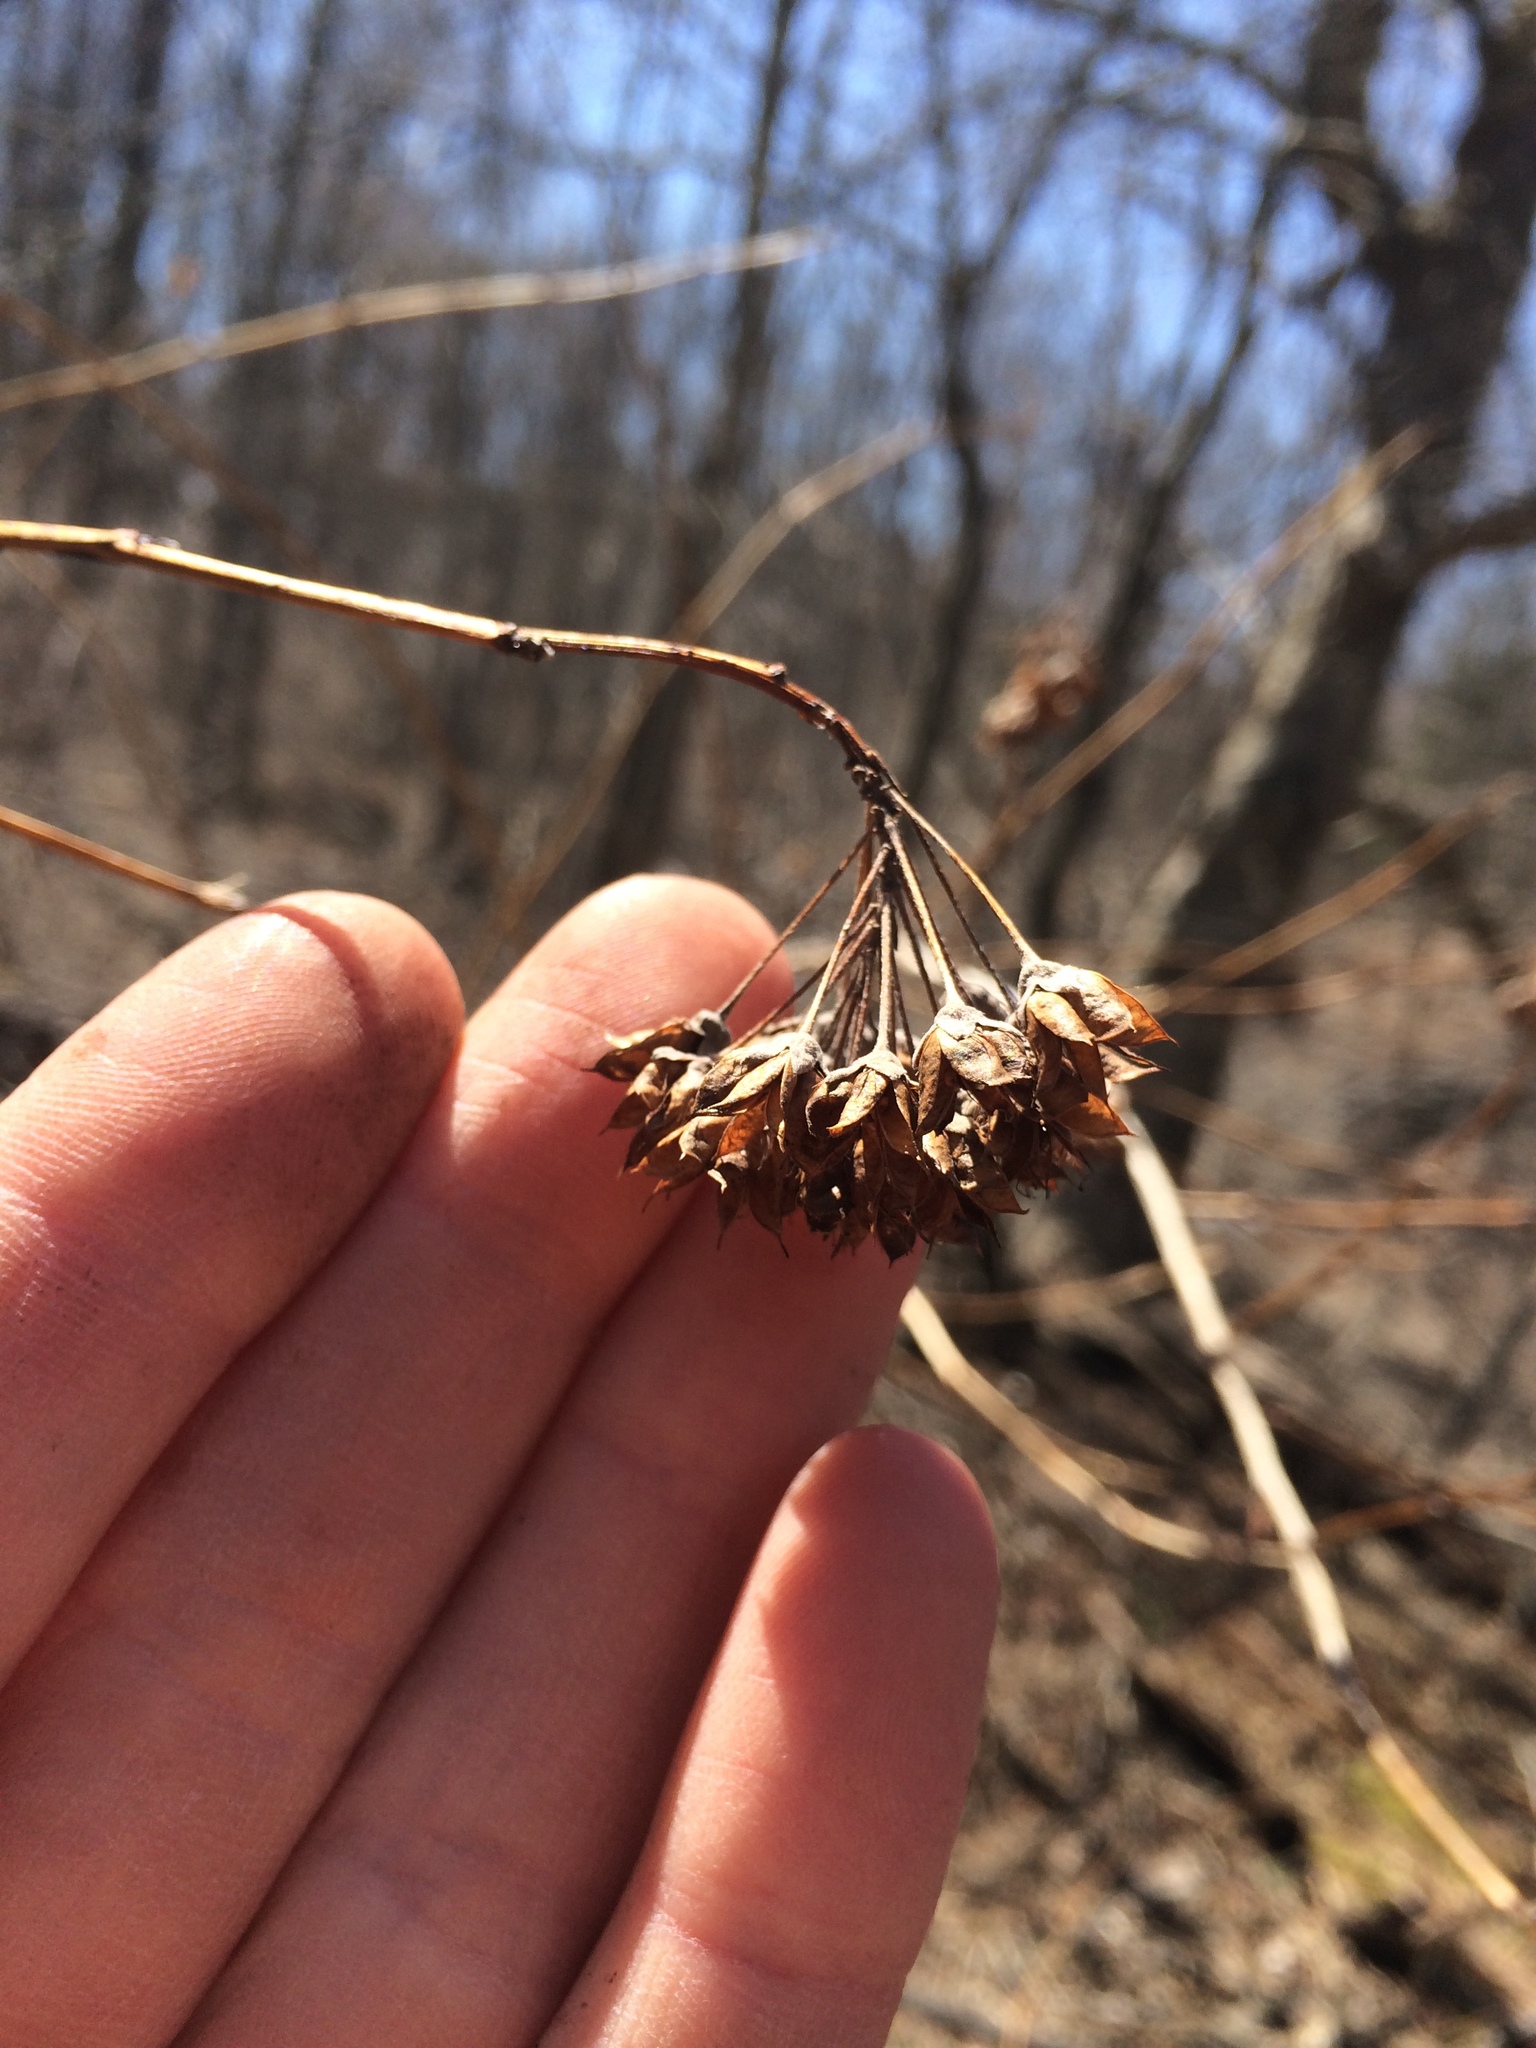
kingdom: Plantae
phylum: Tracheophyta
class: Magnoliopsida
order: Rosales
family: Rosaceae
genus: Physocarpus
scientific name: Physocarpus opulifolius
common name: Ninebark
